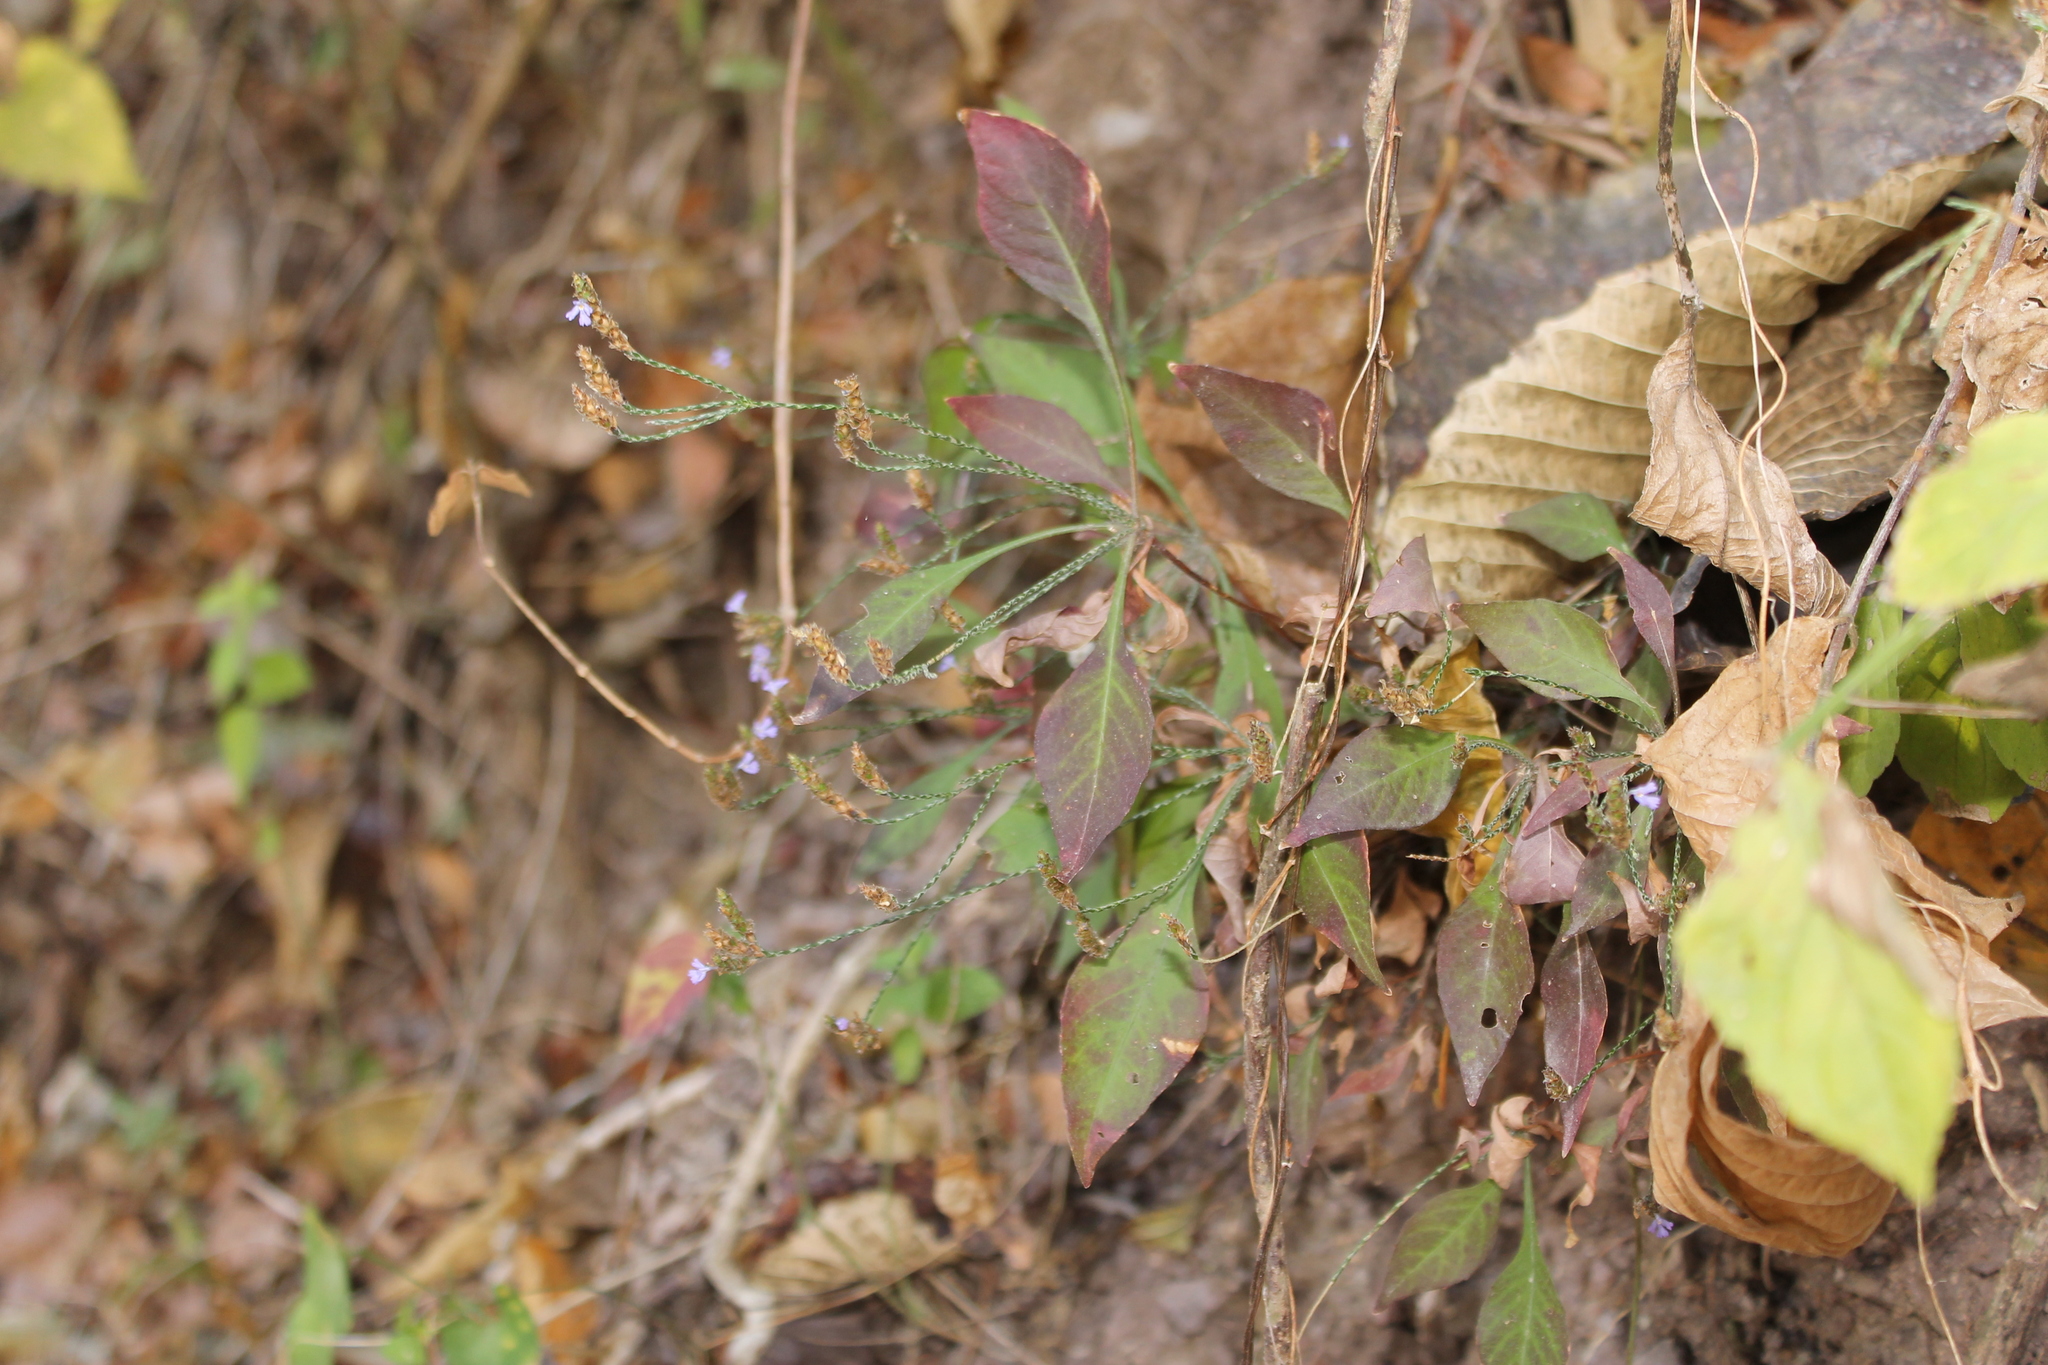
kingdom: Plantae
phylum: Tracheophyta
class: Magnoliopsida
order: Lamiales
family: Acanthaceae
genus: Elytraria
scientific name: Elytraria imbricata
